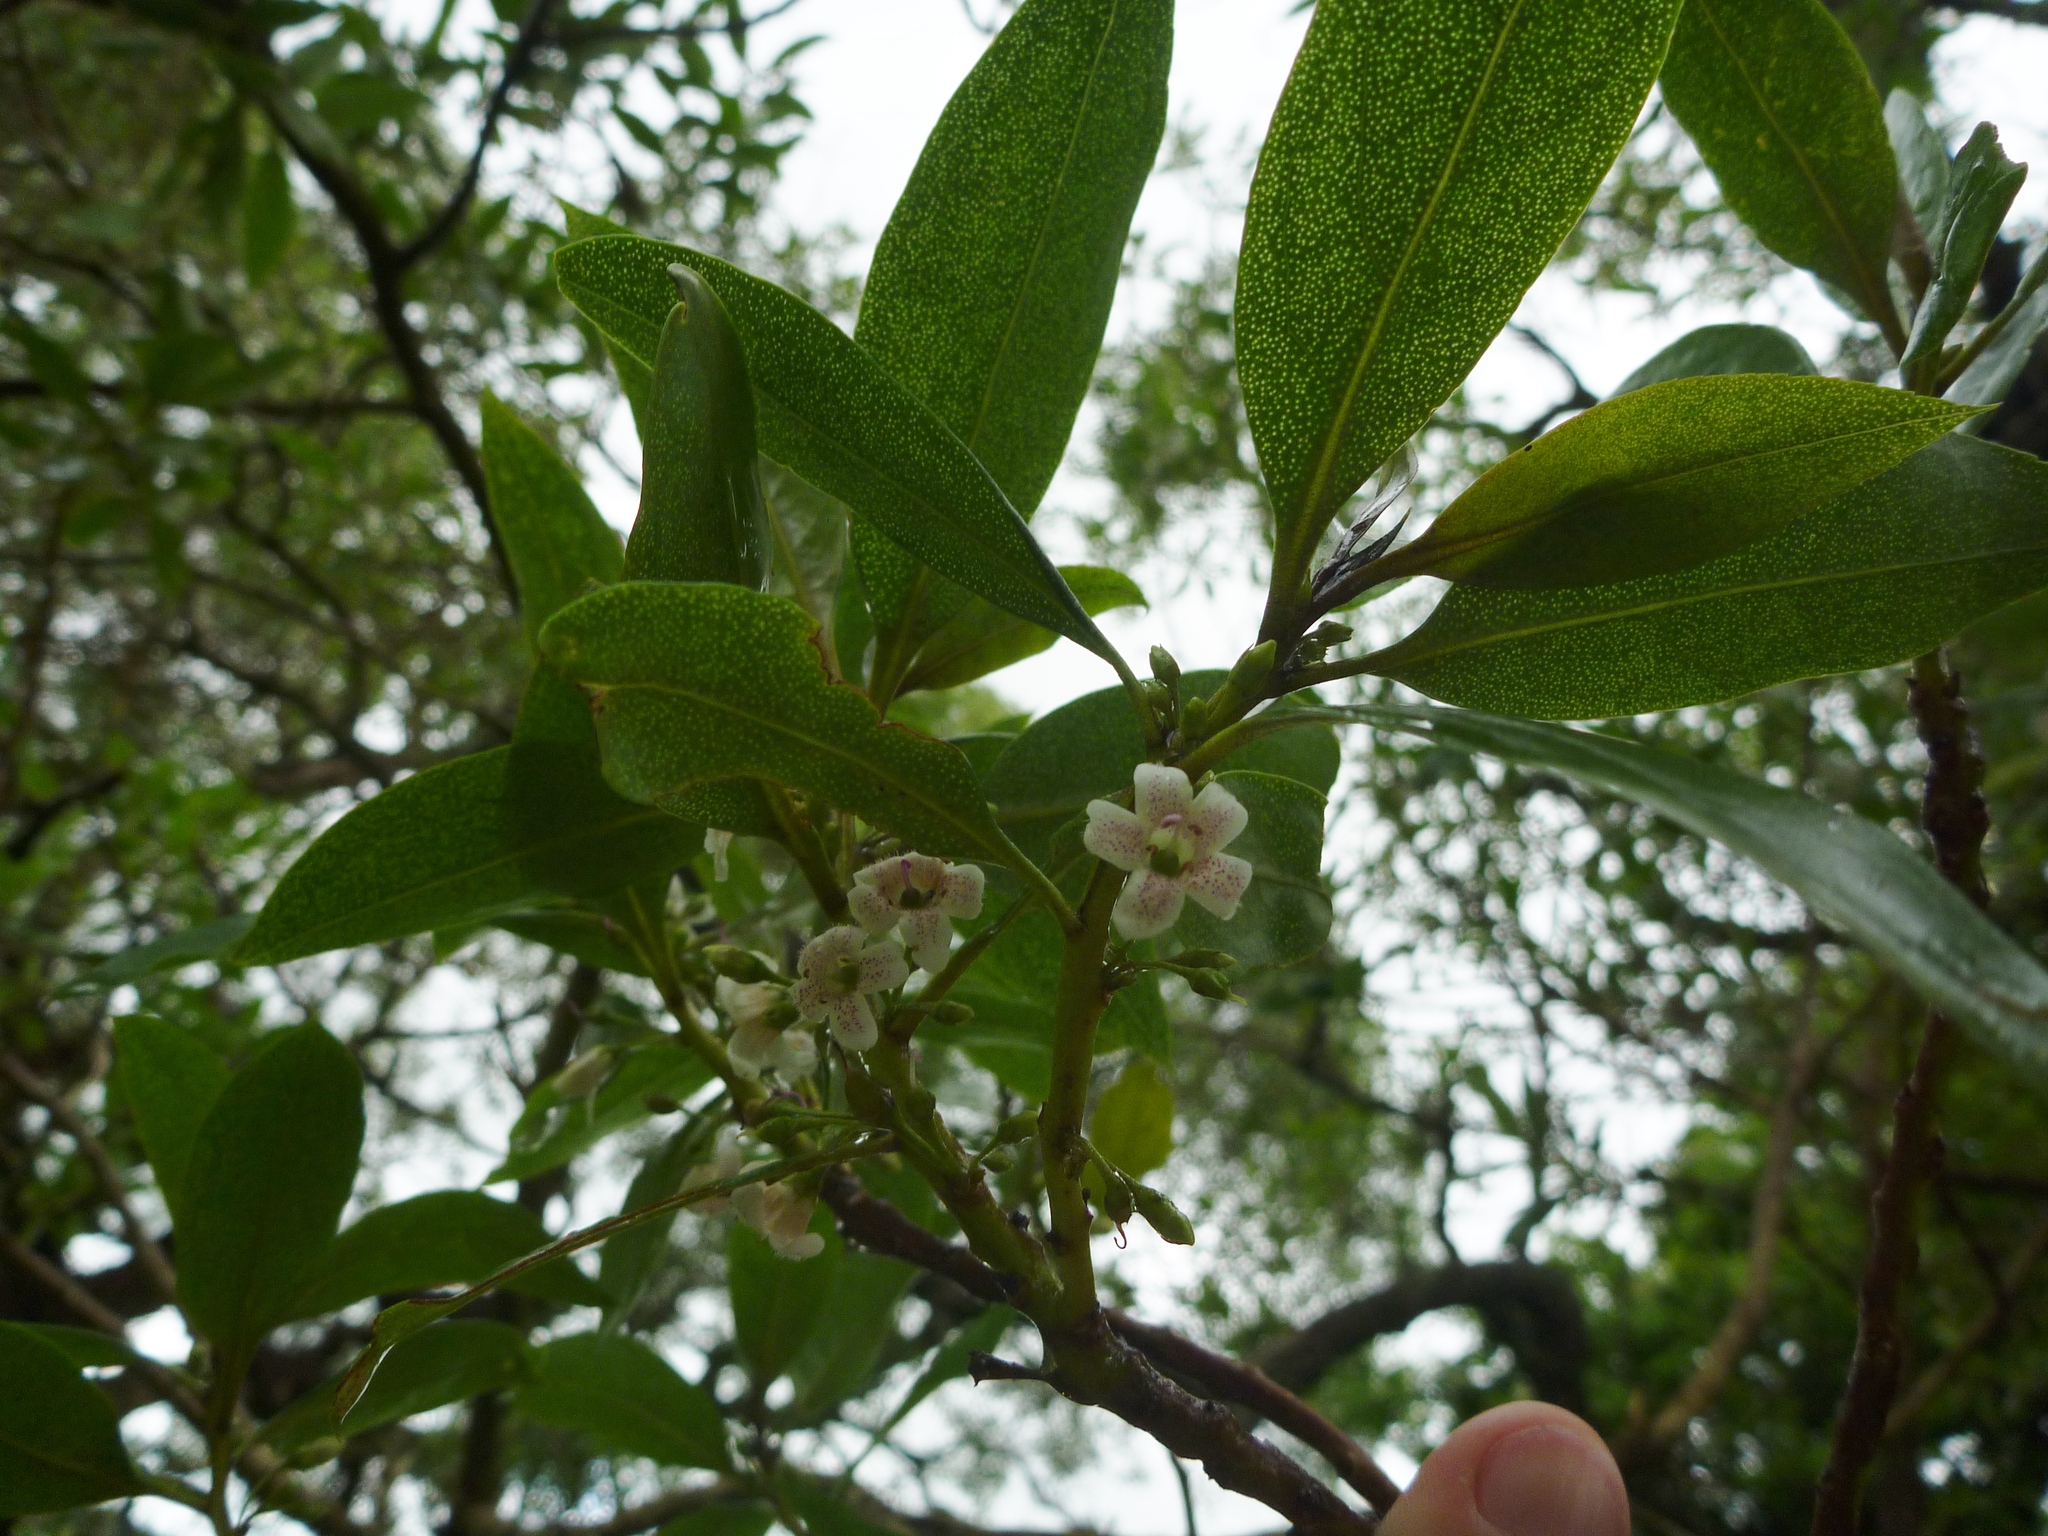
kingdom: Plantae
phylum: Tracheophyta
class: Magnoliopsida
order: Lamiales
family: Scrophulariaceae
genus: Myoporum
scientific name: Myoporum laetum
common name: Ngaio tree
